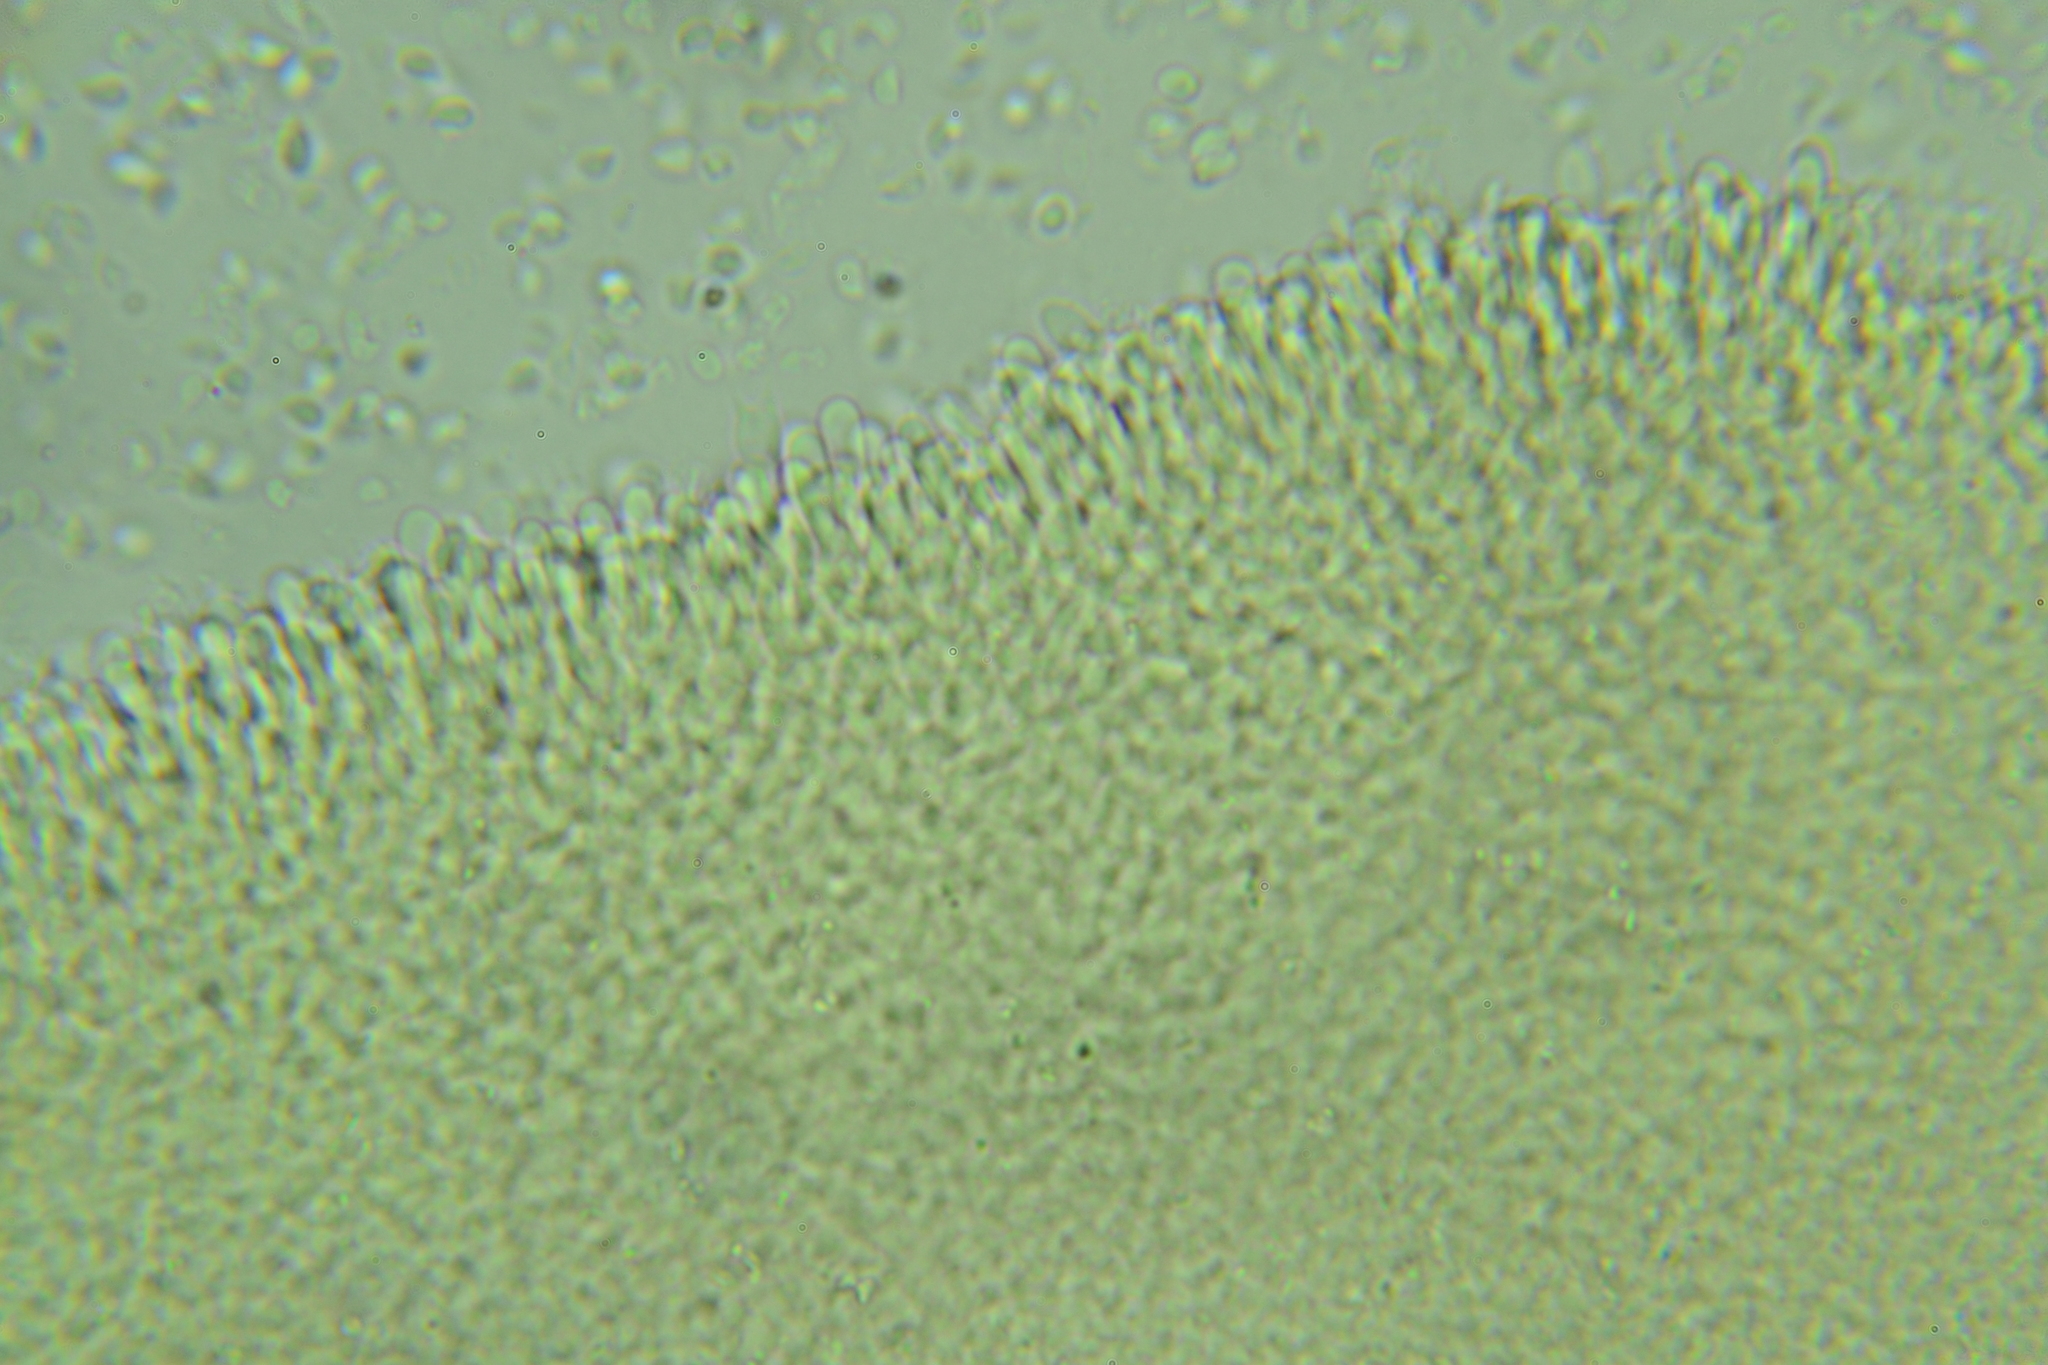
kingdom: Fungi
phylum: Basidiomycota
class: Agaricomycetes
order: Agaricales
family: Tricholomataceae
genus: Singerocybe
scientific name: Singerocybe adirondackensis
